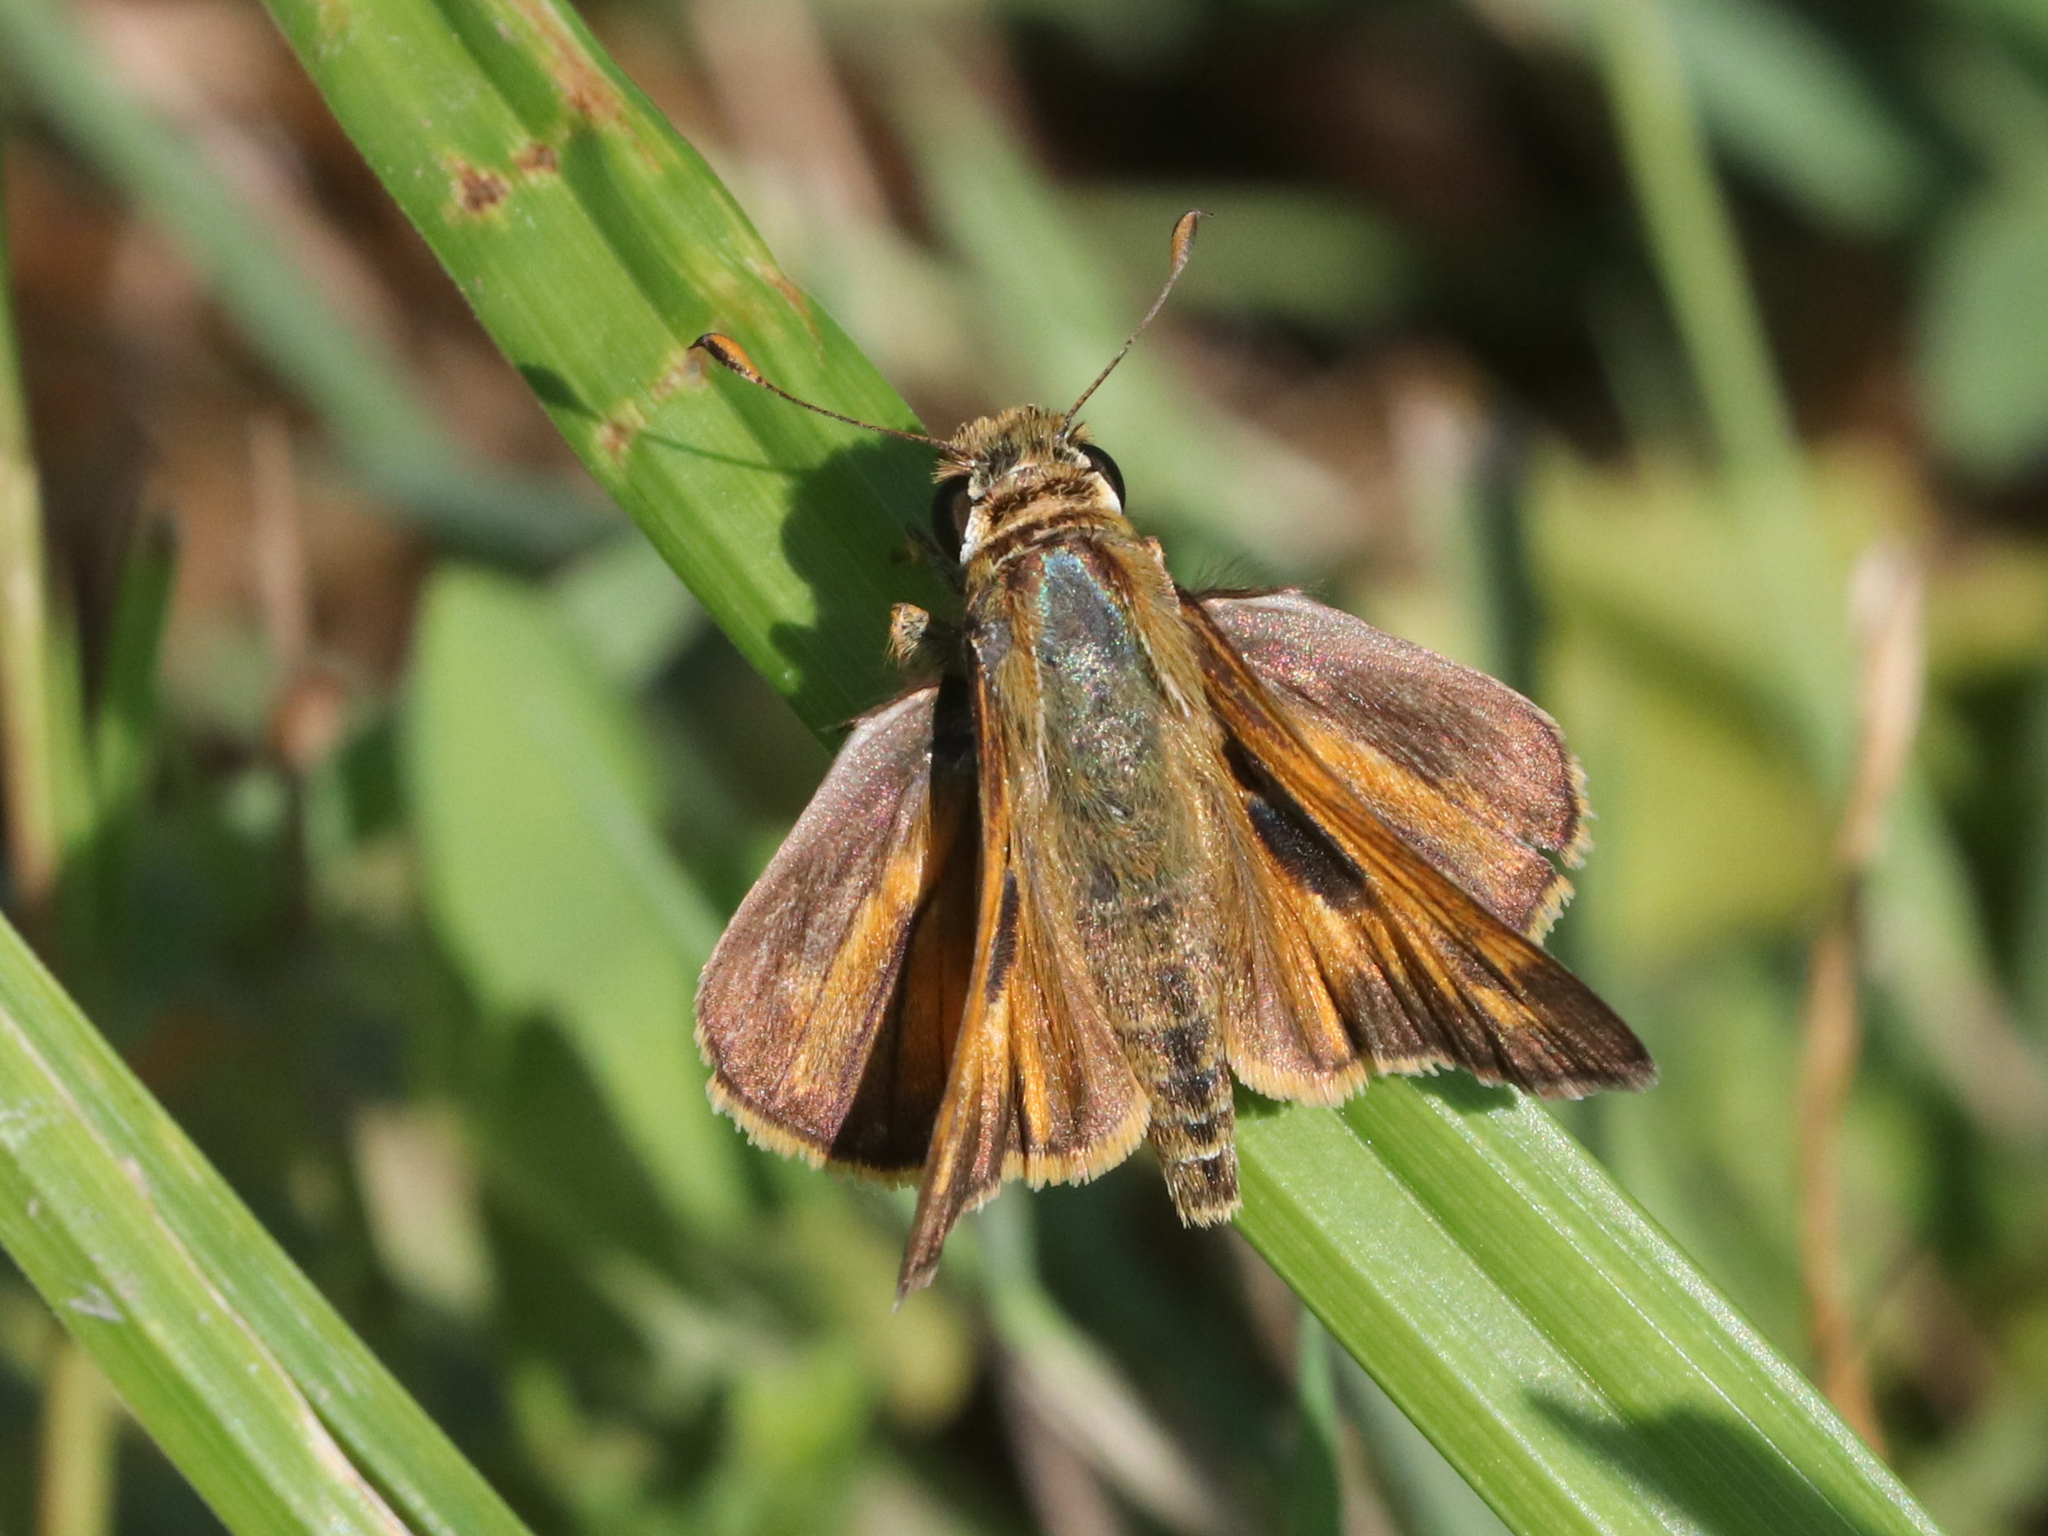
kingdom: Animalia
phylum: Arthropoda
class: Insecta
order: Lepidoptera
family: Hesperiidae
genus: Atalopedes
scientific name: Atalopedes
